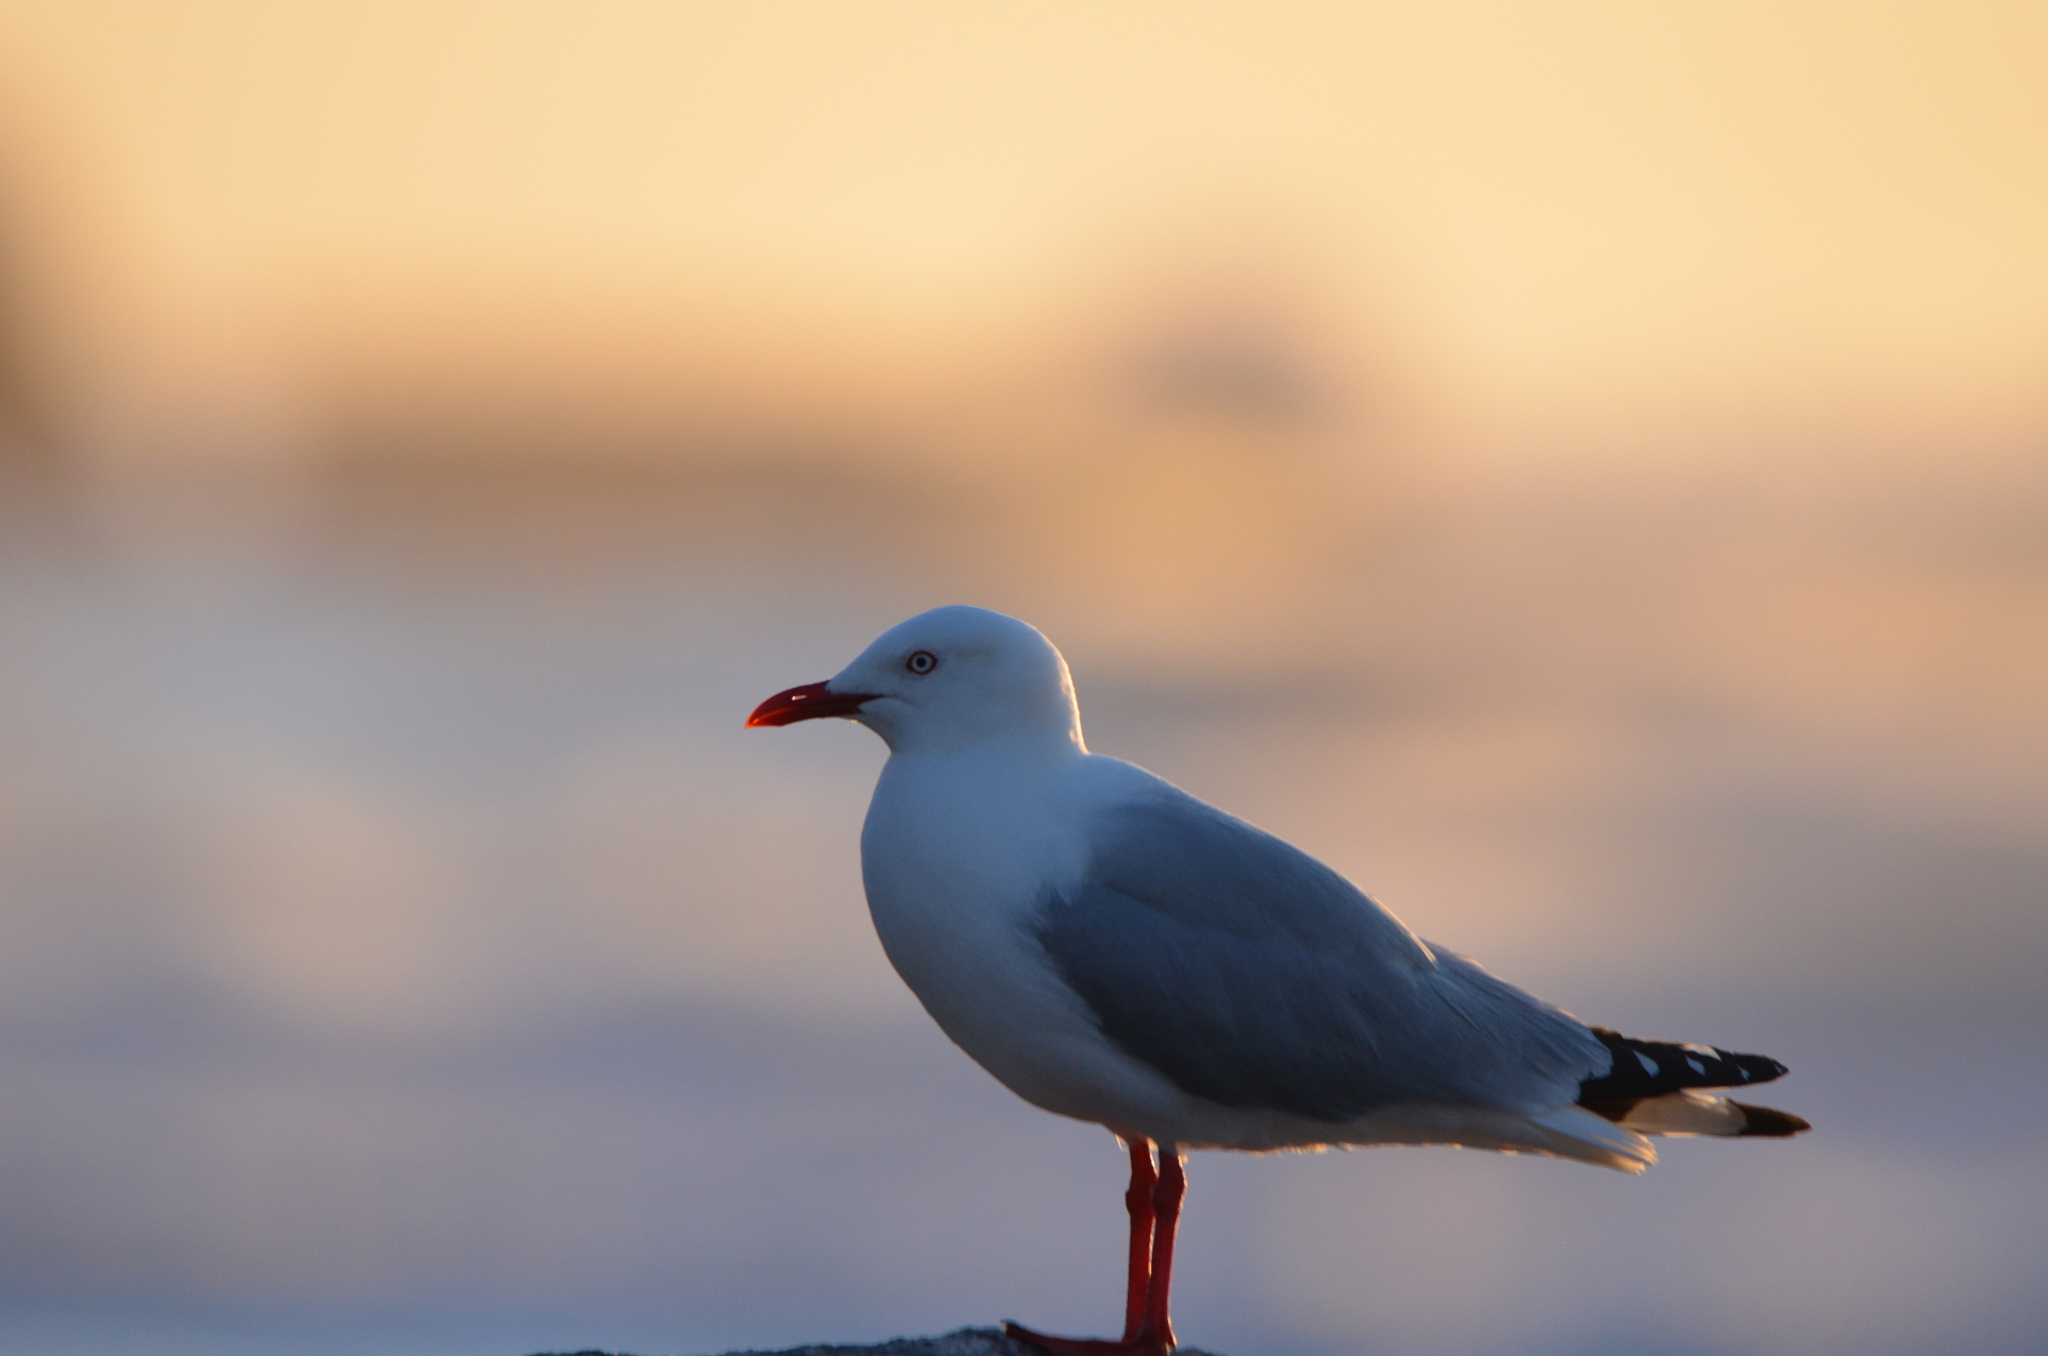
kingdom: Animalia
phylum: Chordata
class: Aves
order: Charadriiformes
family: Laridae
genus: Chroicocephalus
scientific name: Chroicocephalus novaehollandiae
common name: Silver gull
